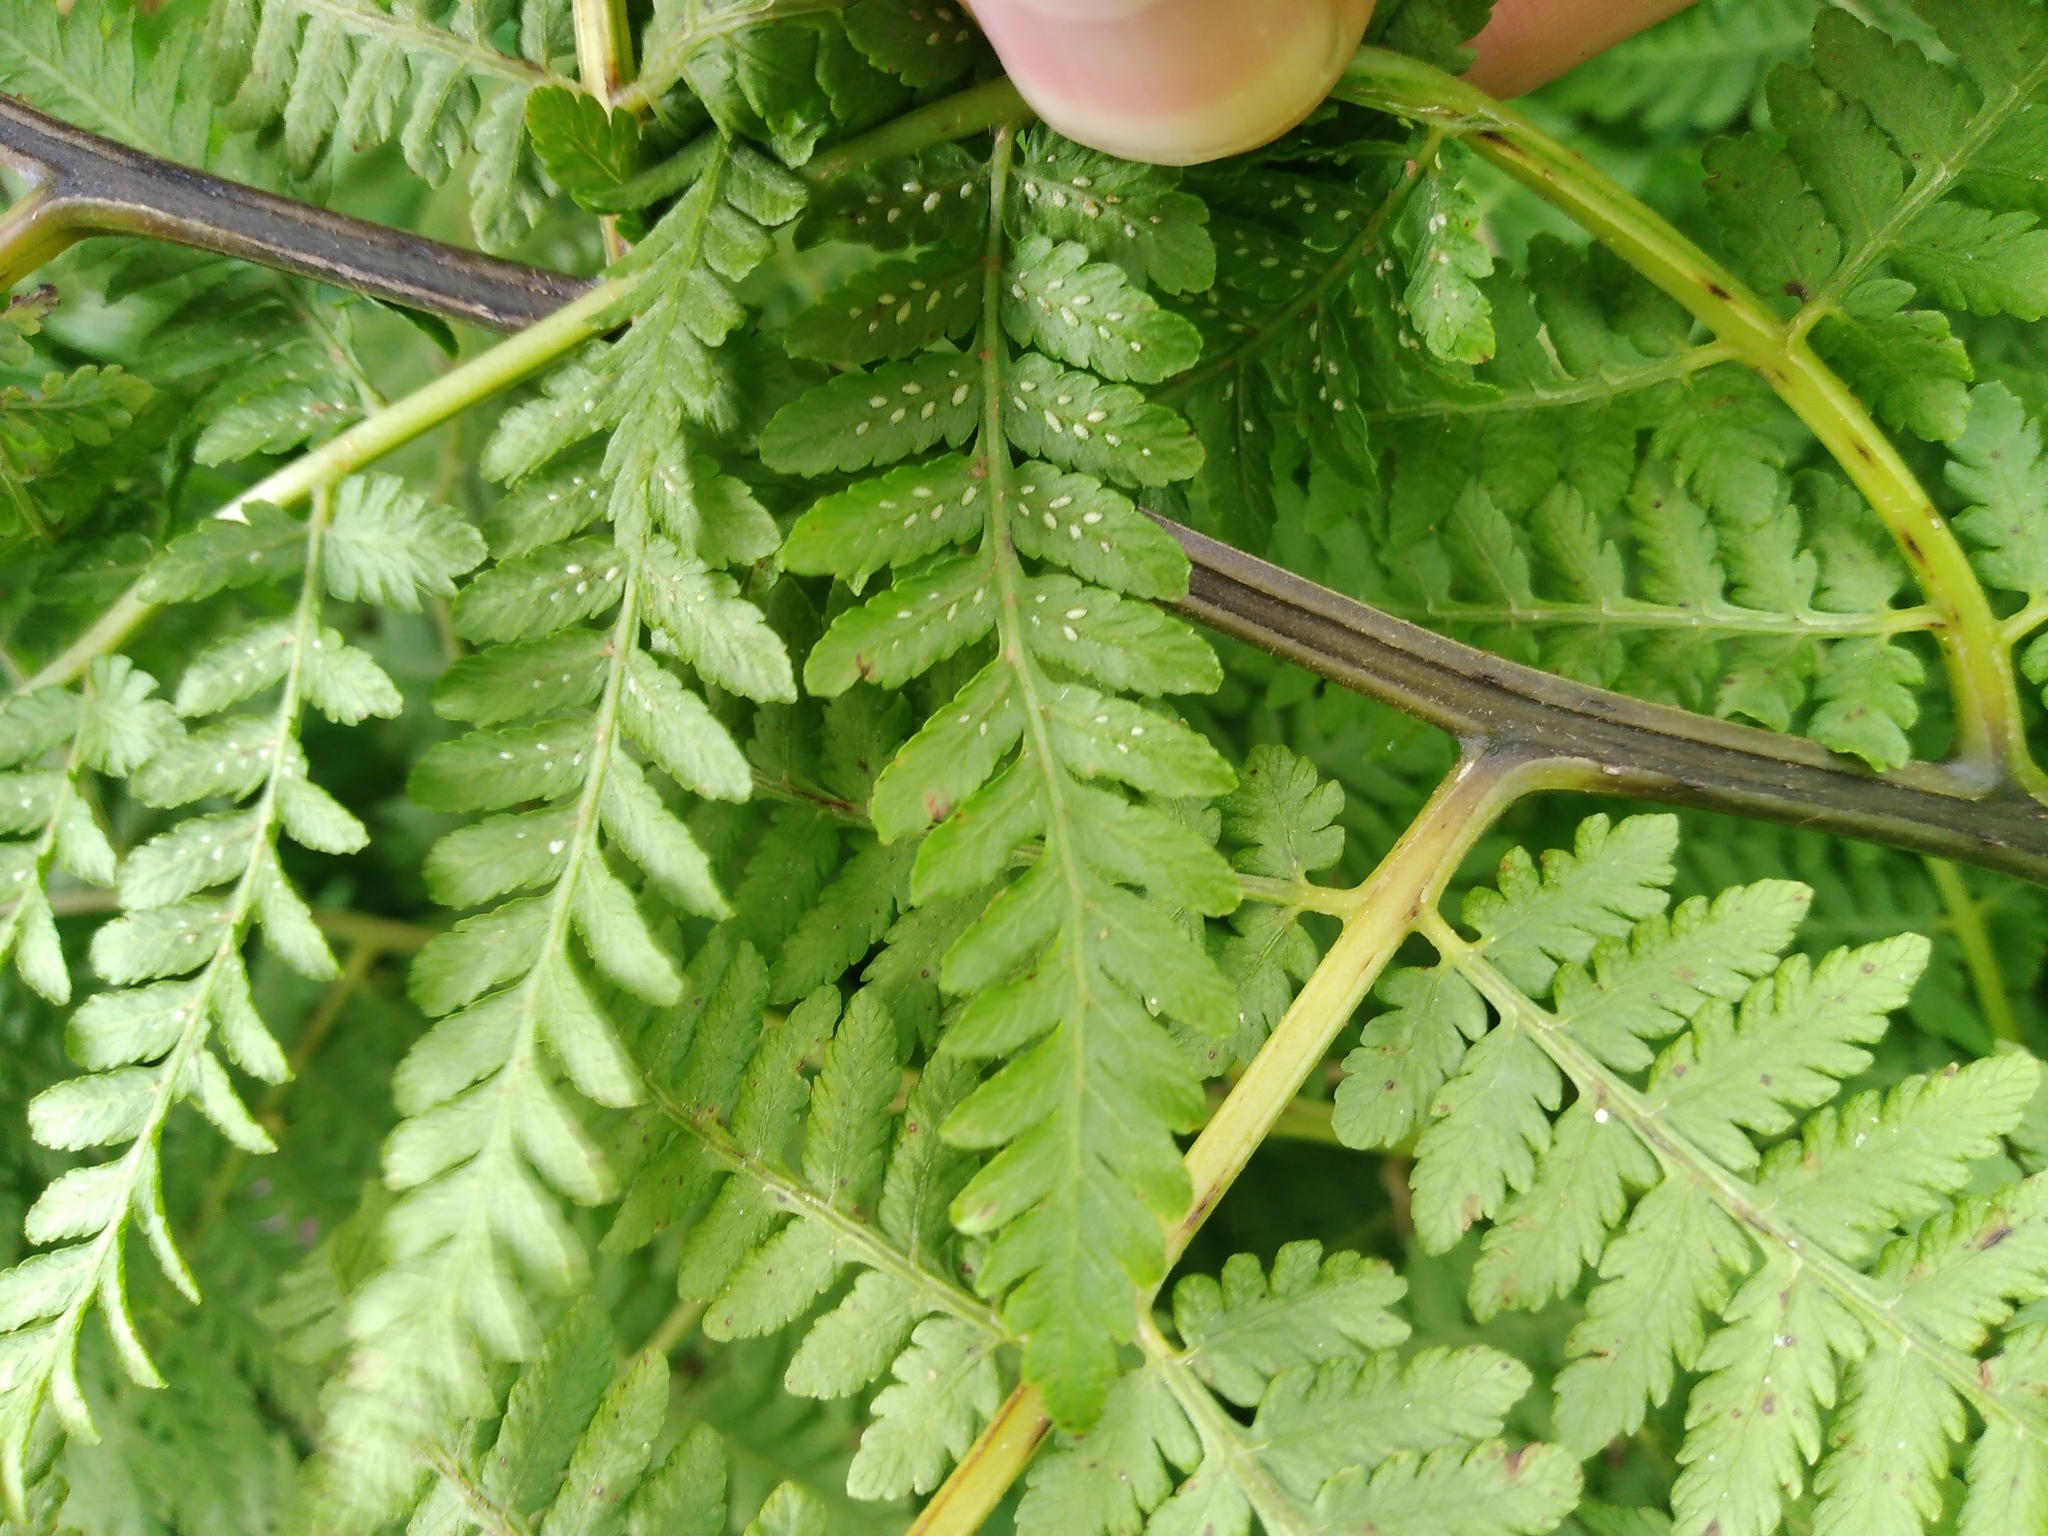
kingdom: Plantae
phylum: Tracheophyta
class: Polypodiopsida
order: Polypodiales
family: Athyriaceae
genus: Diplazium
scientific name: Diplazium australe
